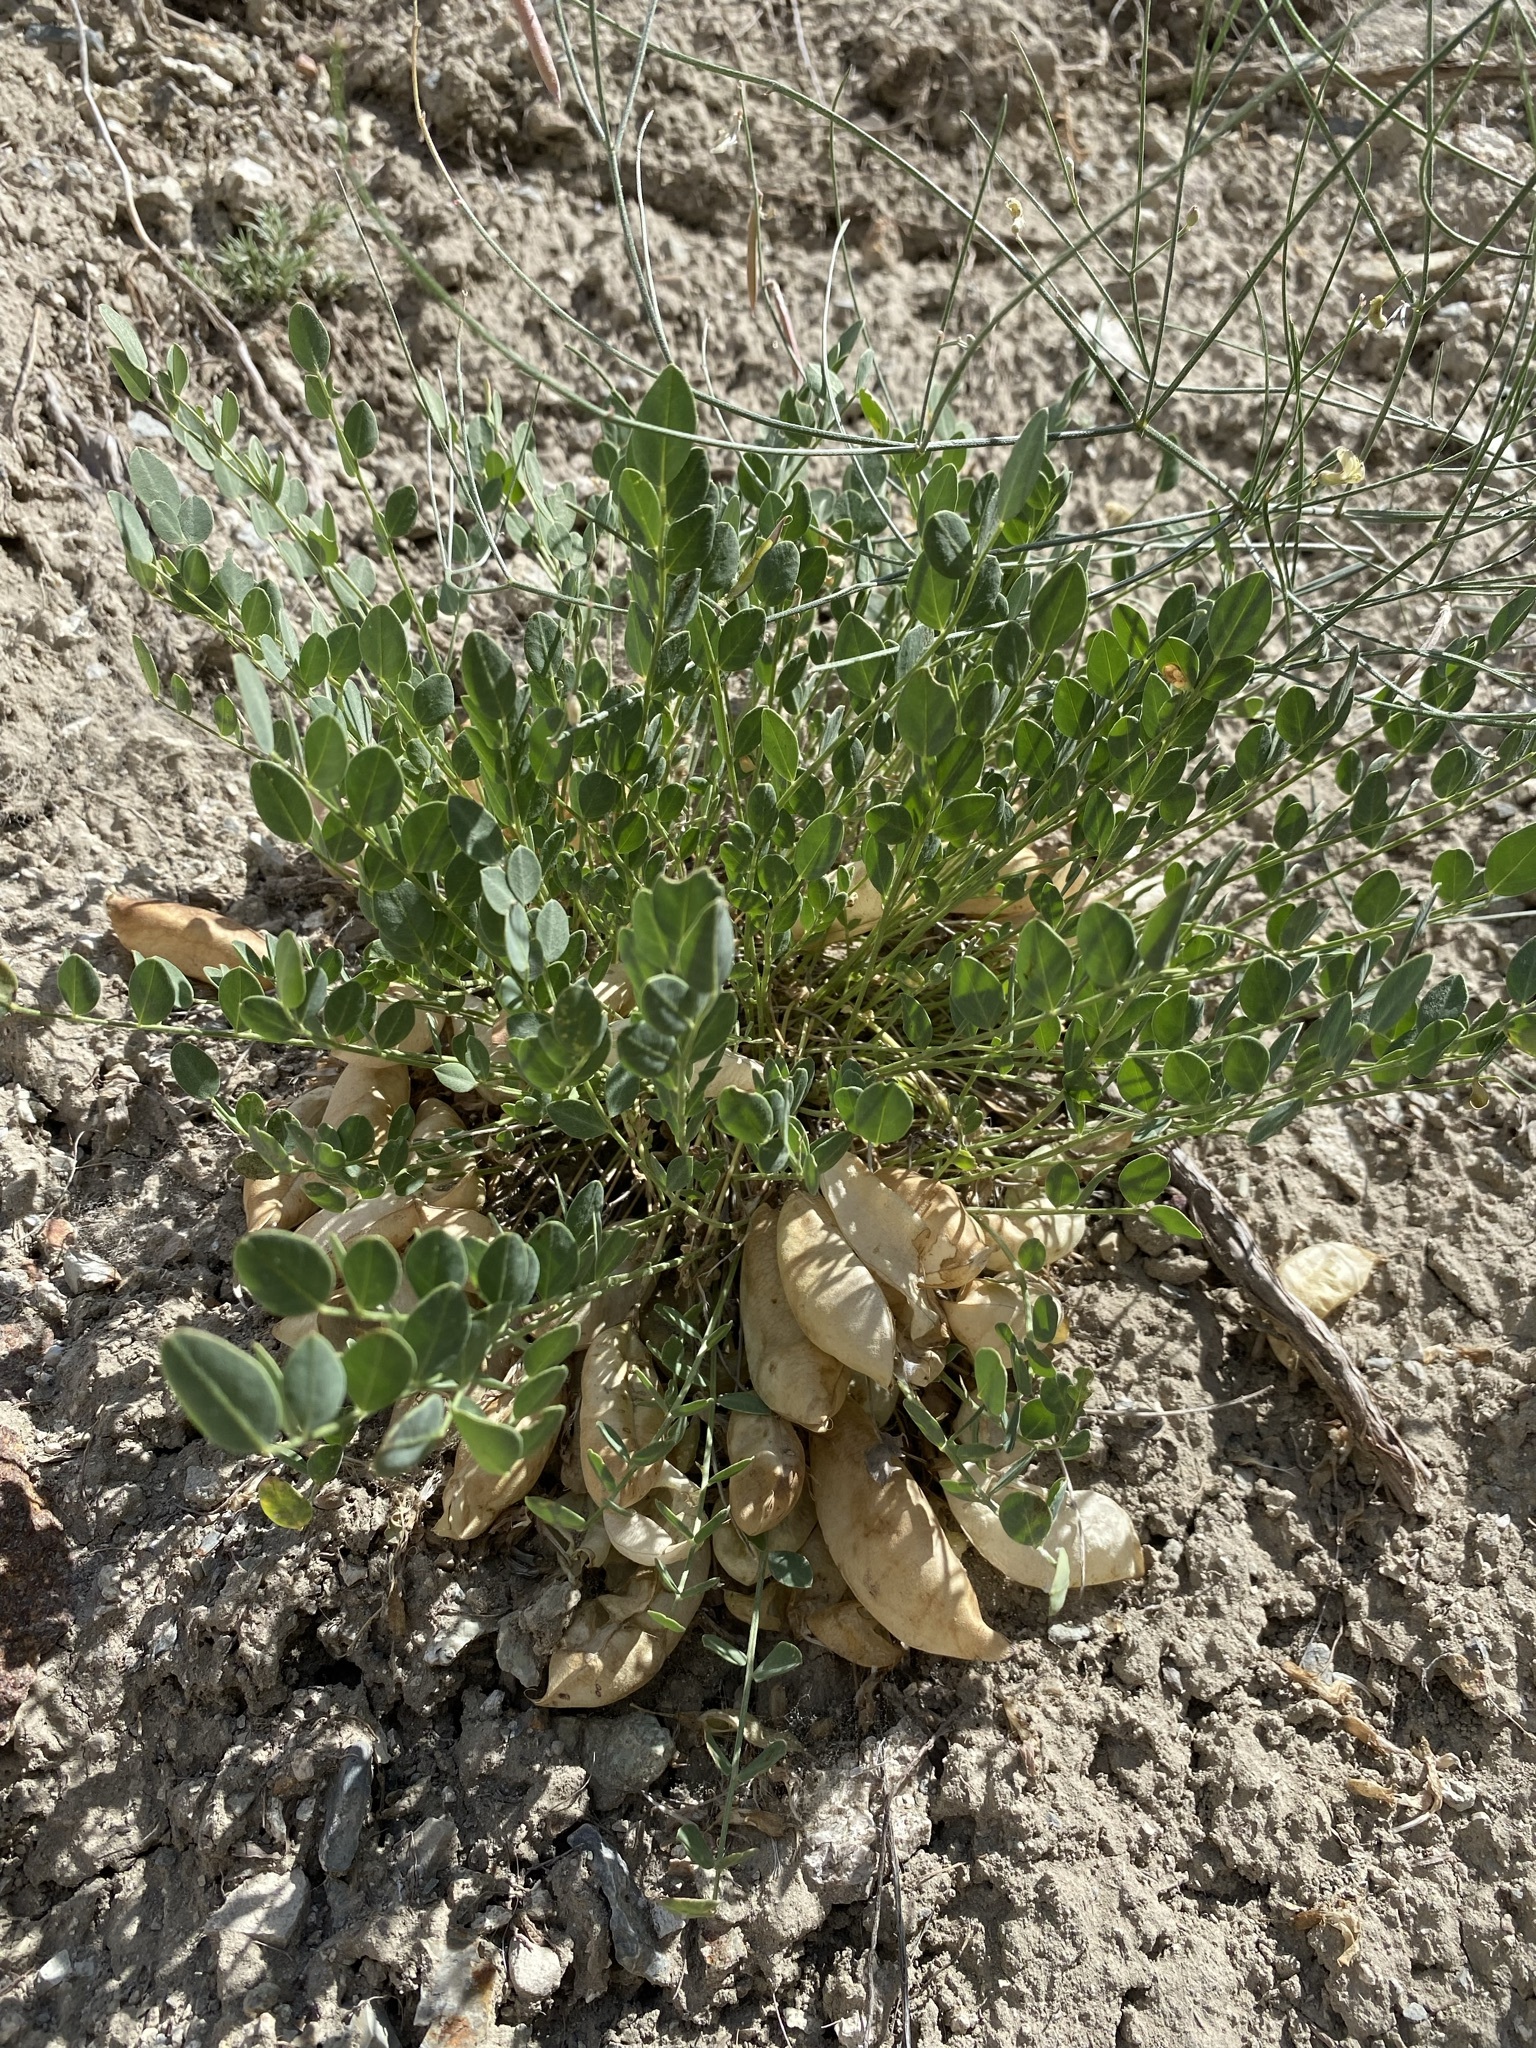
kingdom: Plantae
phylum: Tracheophyta
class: Magnoliopsida
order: Fabales
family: Fabaceae
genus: Astragalus
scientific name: Astragalus megacarpus
